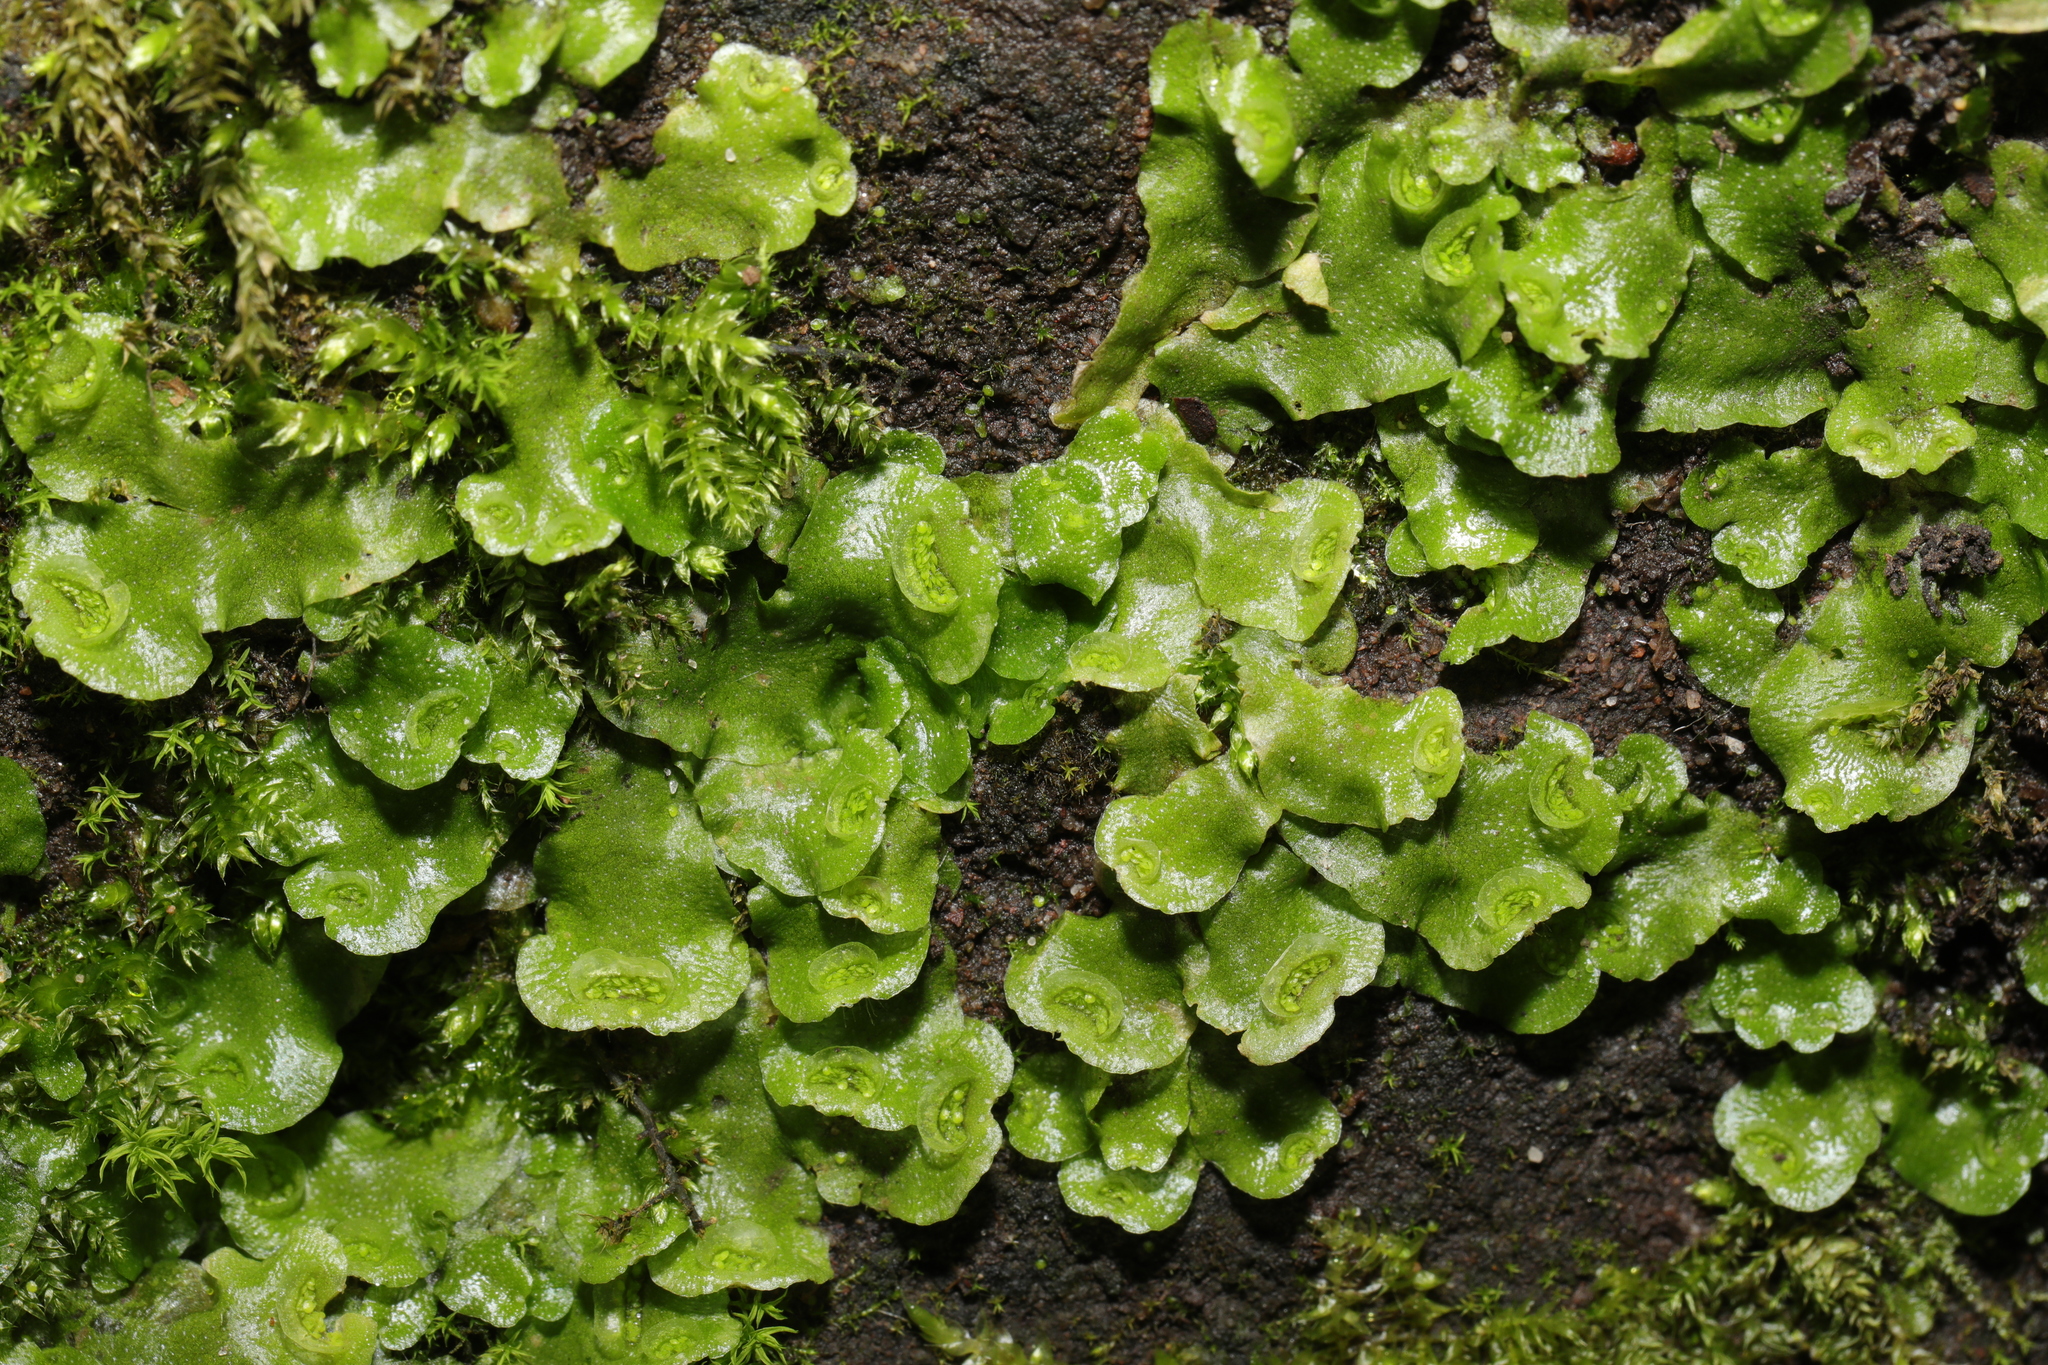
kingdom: Plantae
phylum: Marchantiophyta
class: Marchantiopsida
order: Lunulariales
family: Lunulariaceae
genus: Lunularia
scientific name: Lunularia cruciata
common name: Crescent-cup liverwort
